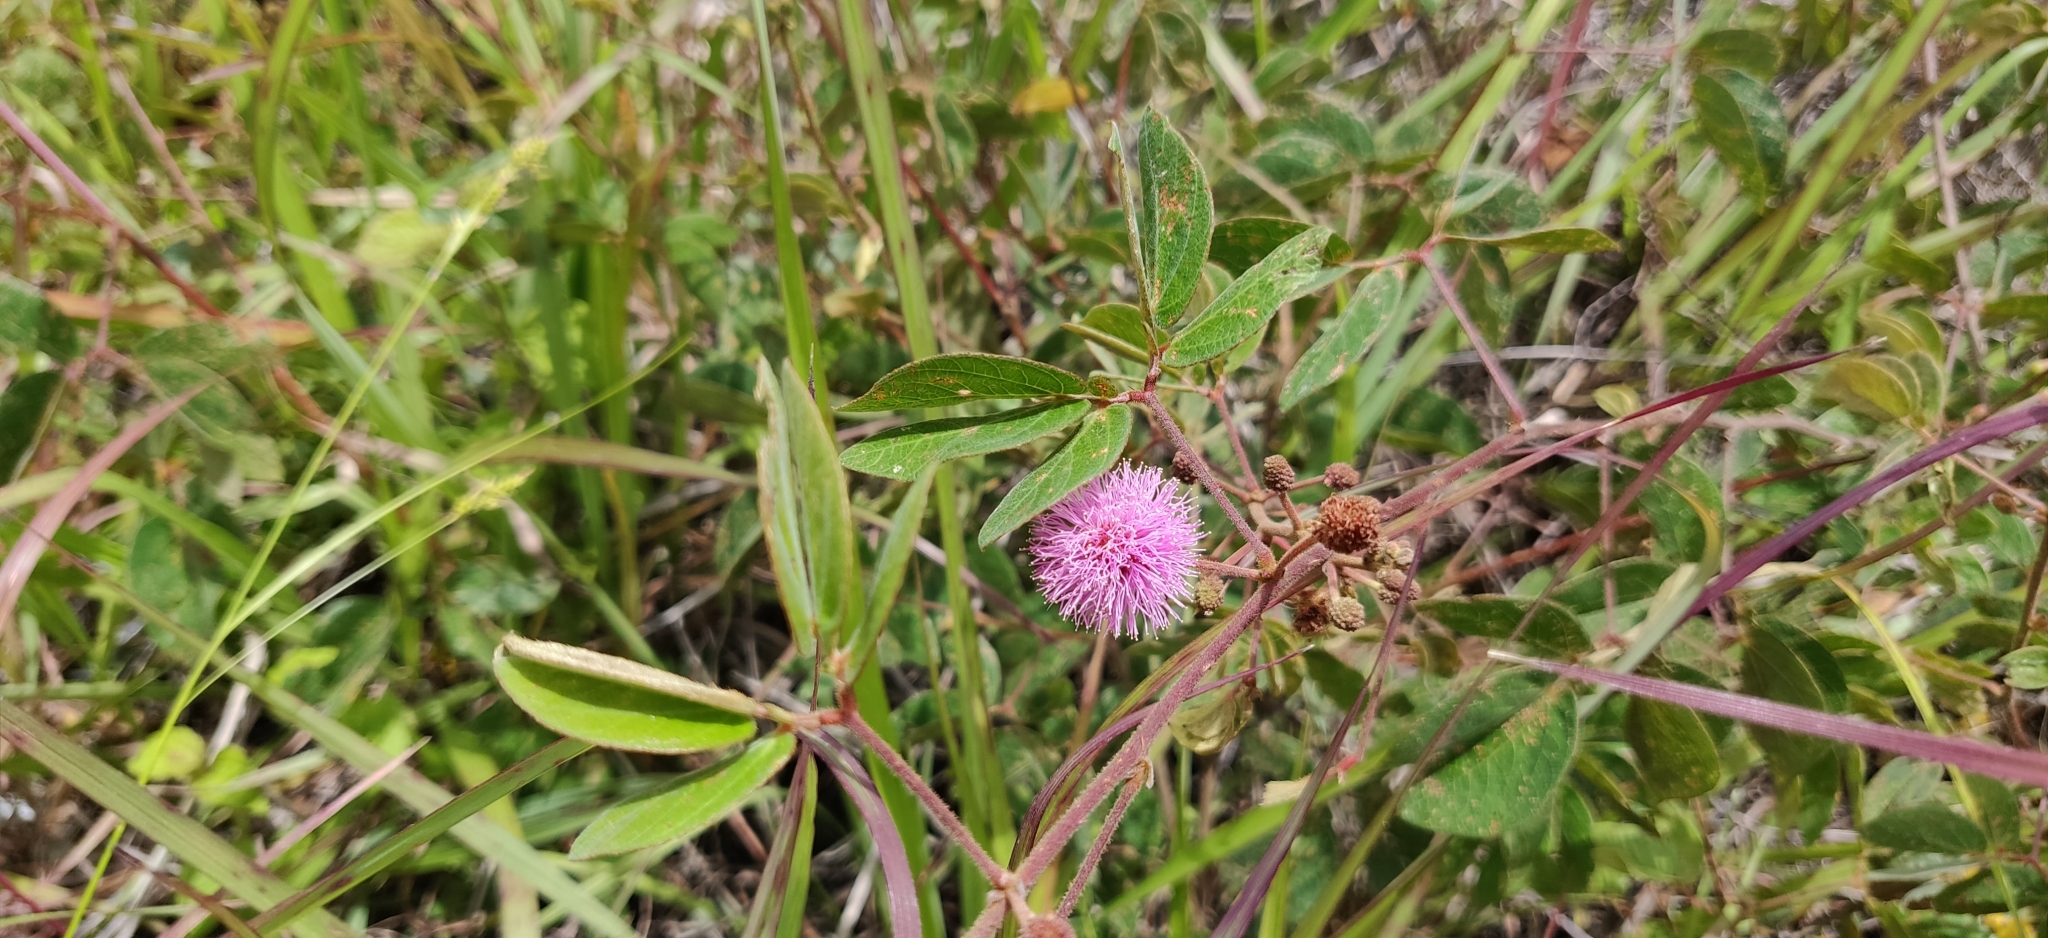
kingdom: Plantae
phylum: Tracheophyta
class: Magnoliopsida
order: Fabales
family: Fabaceae
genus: Mimosa
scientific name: Mimosa albida
